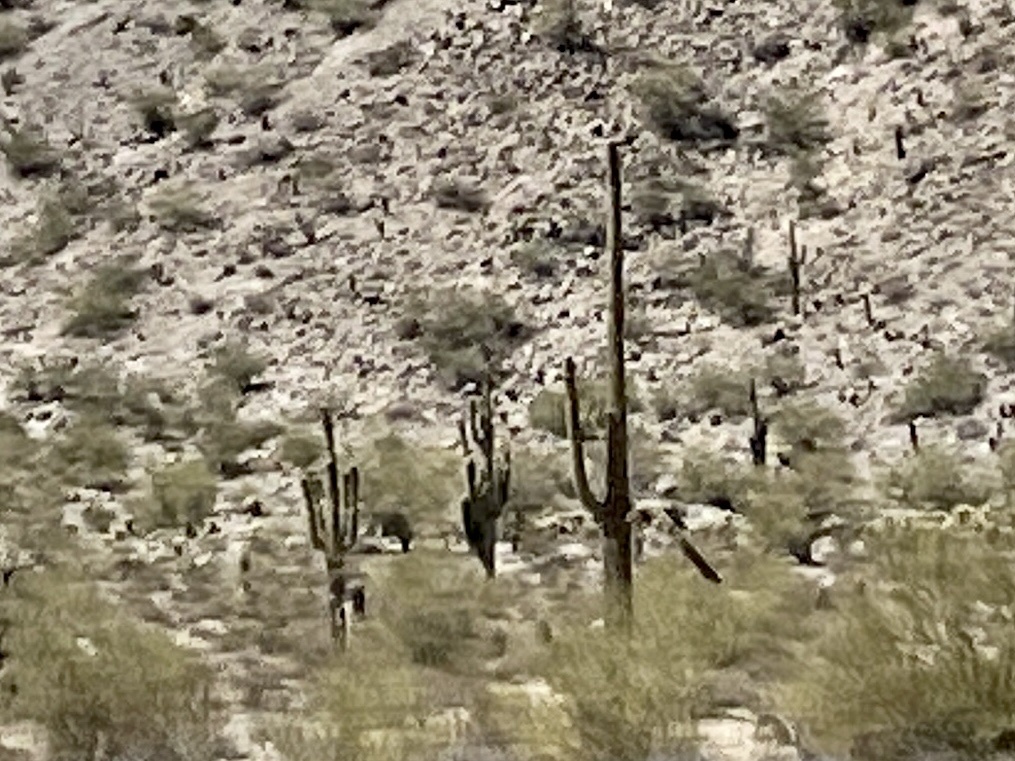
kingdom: Plantae
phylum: Tracheophyta
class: Magnoliopsida
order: Caryophyllales
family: Cactaceae
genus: Carnegiea
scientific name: Carnegiea gigantea
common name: Saguaro
